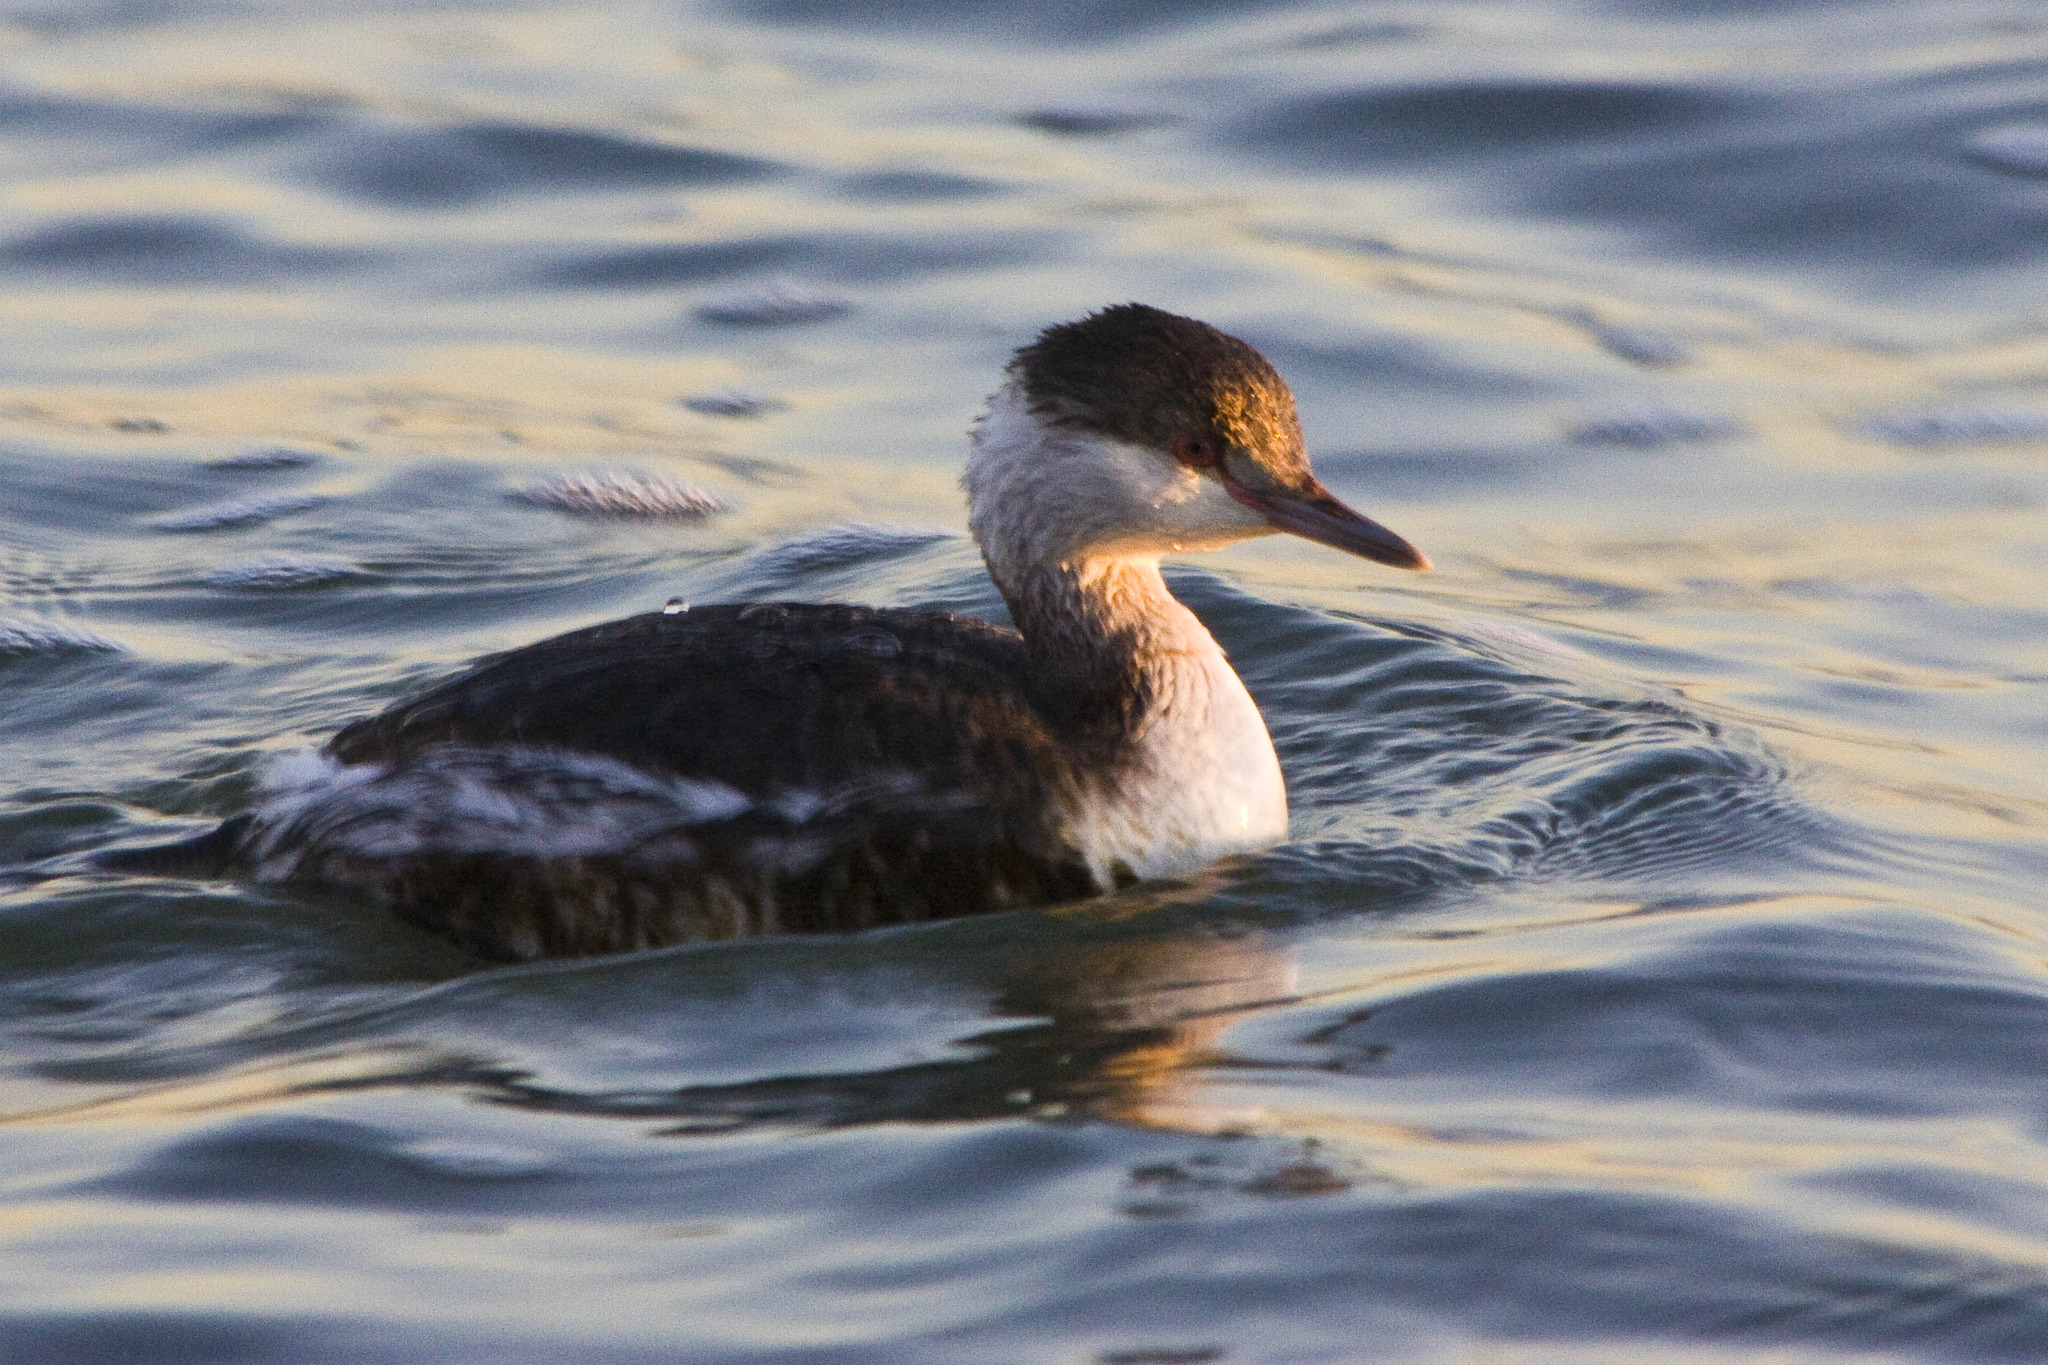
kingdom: Animalia
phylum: Chordata
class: Aves
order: Podicipediformes
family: Podicipedidae
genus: Podiceps
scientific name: Podiceps auritus
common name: Horned grebe
